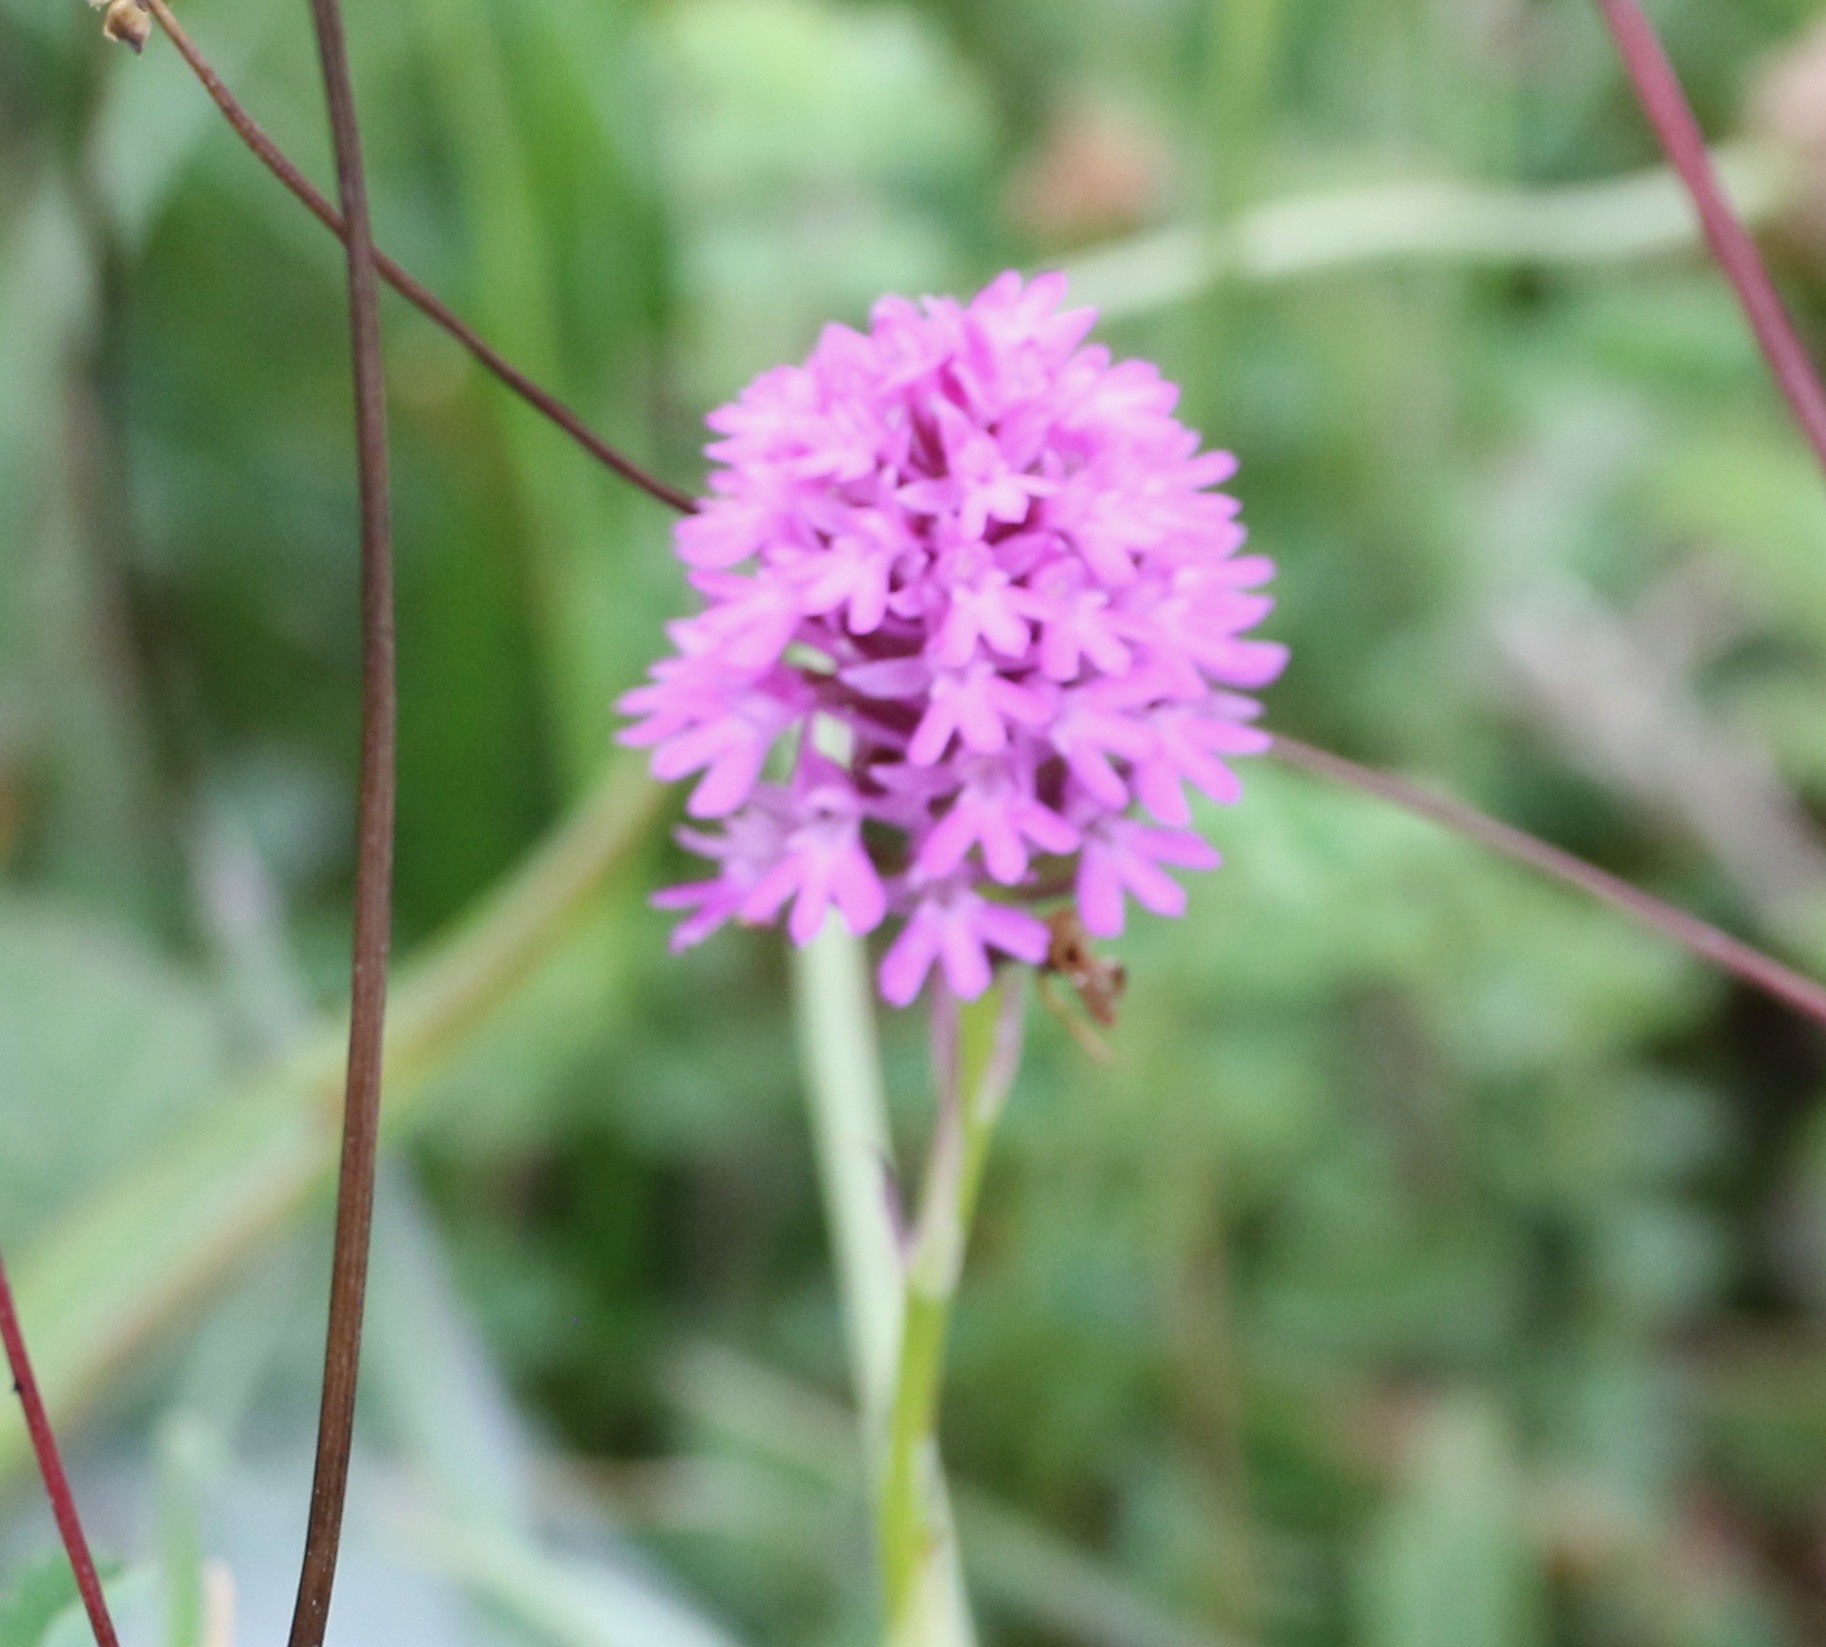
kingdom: Plantae
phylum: Tracheophyta
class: Liliopsida
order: Asparagales
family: Orchidaceae
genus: Anacamptis
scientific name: Anacamptis pyramidalis
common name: Pyramidal orchid
